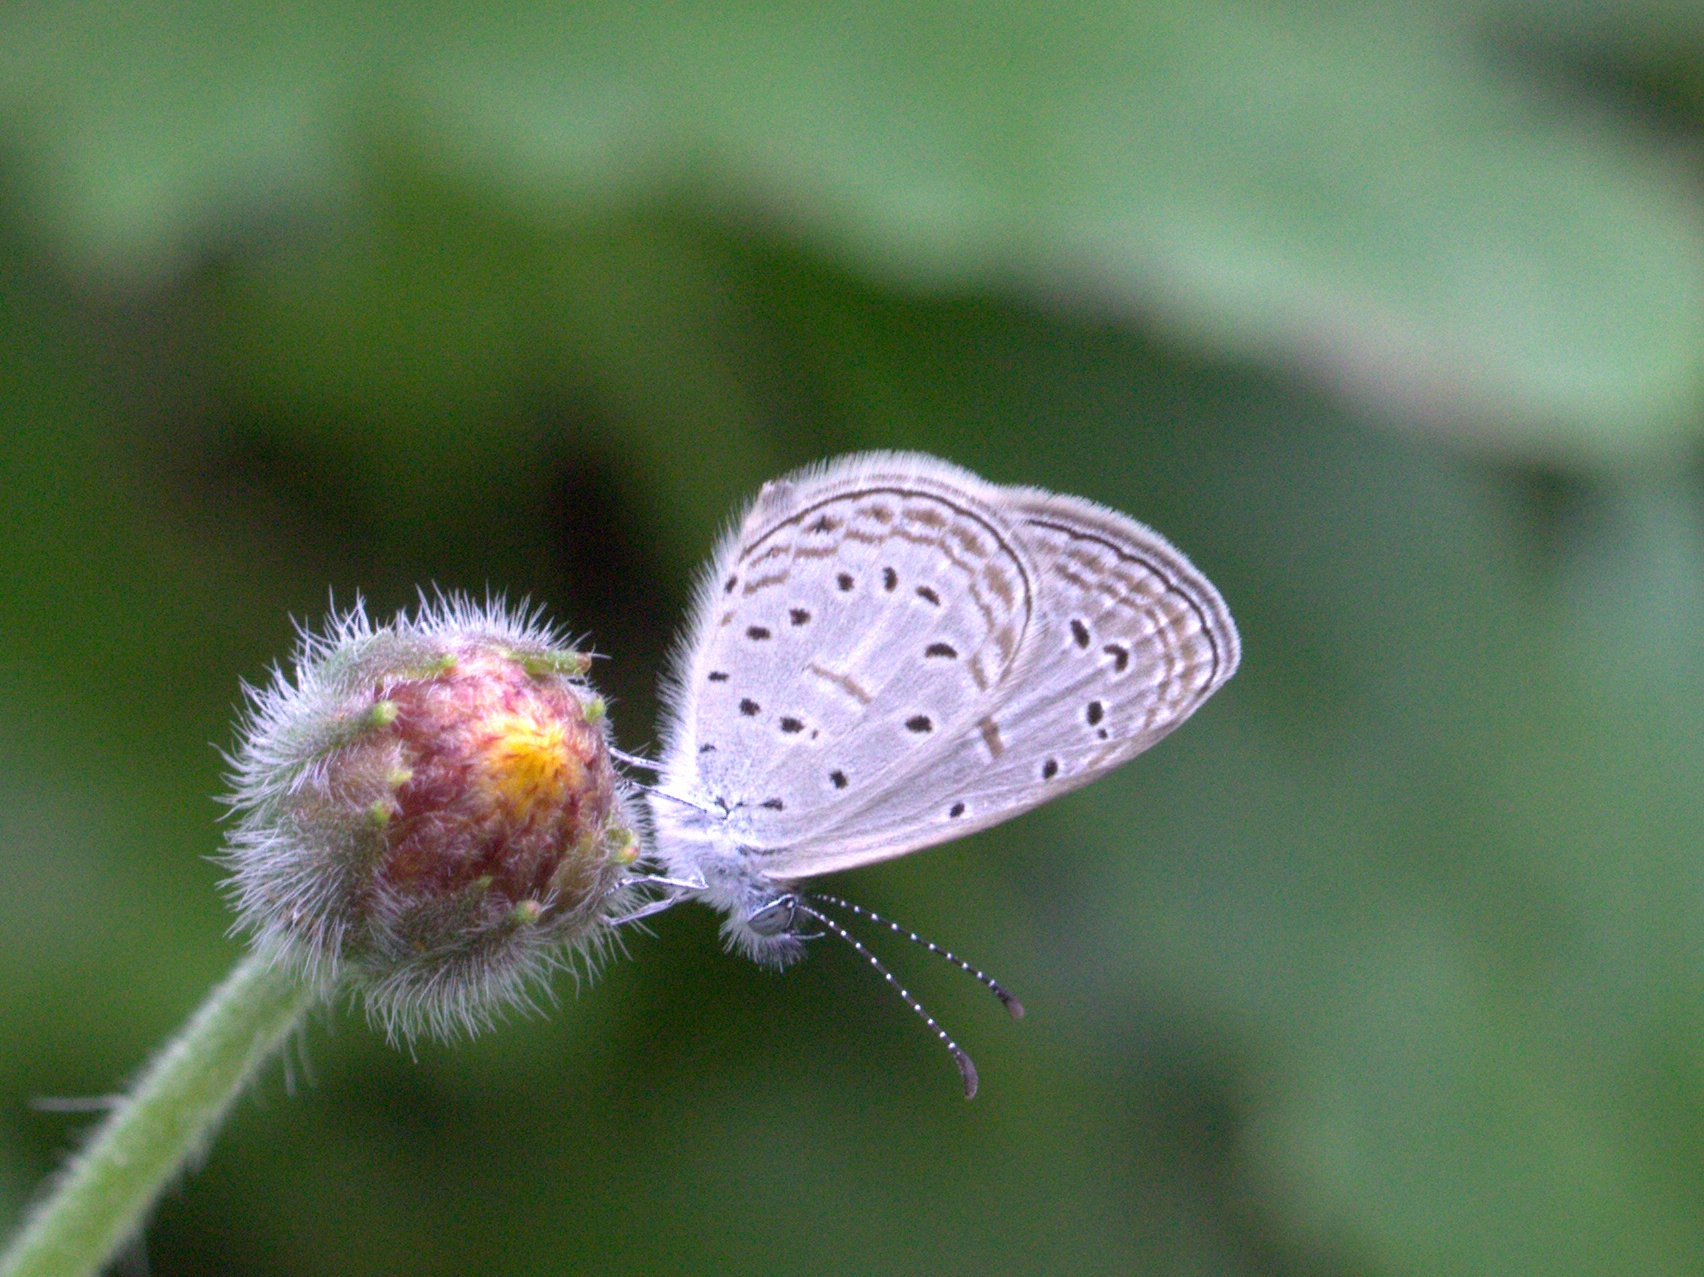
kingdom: Animalia
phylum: Arthropoda
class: Insecta
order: Lepidoptera
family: Lycaenidae
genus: Zizula
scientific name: Zizula hylax
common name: Gaika blue
